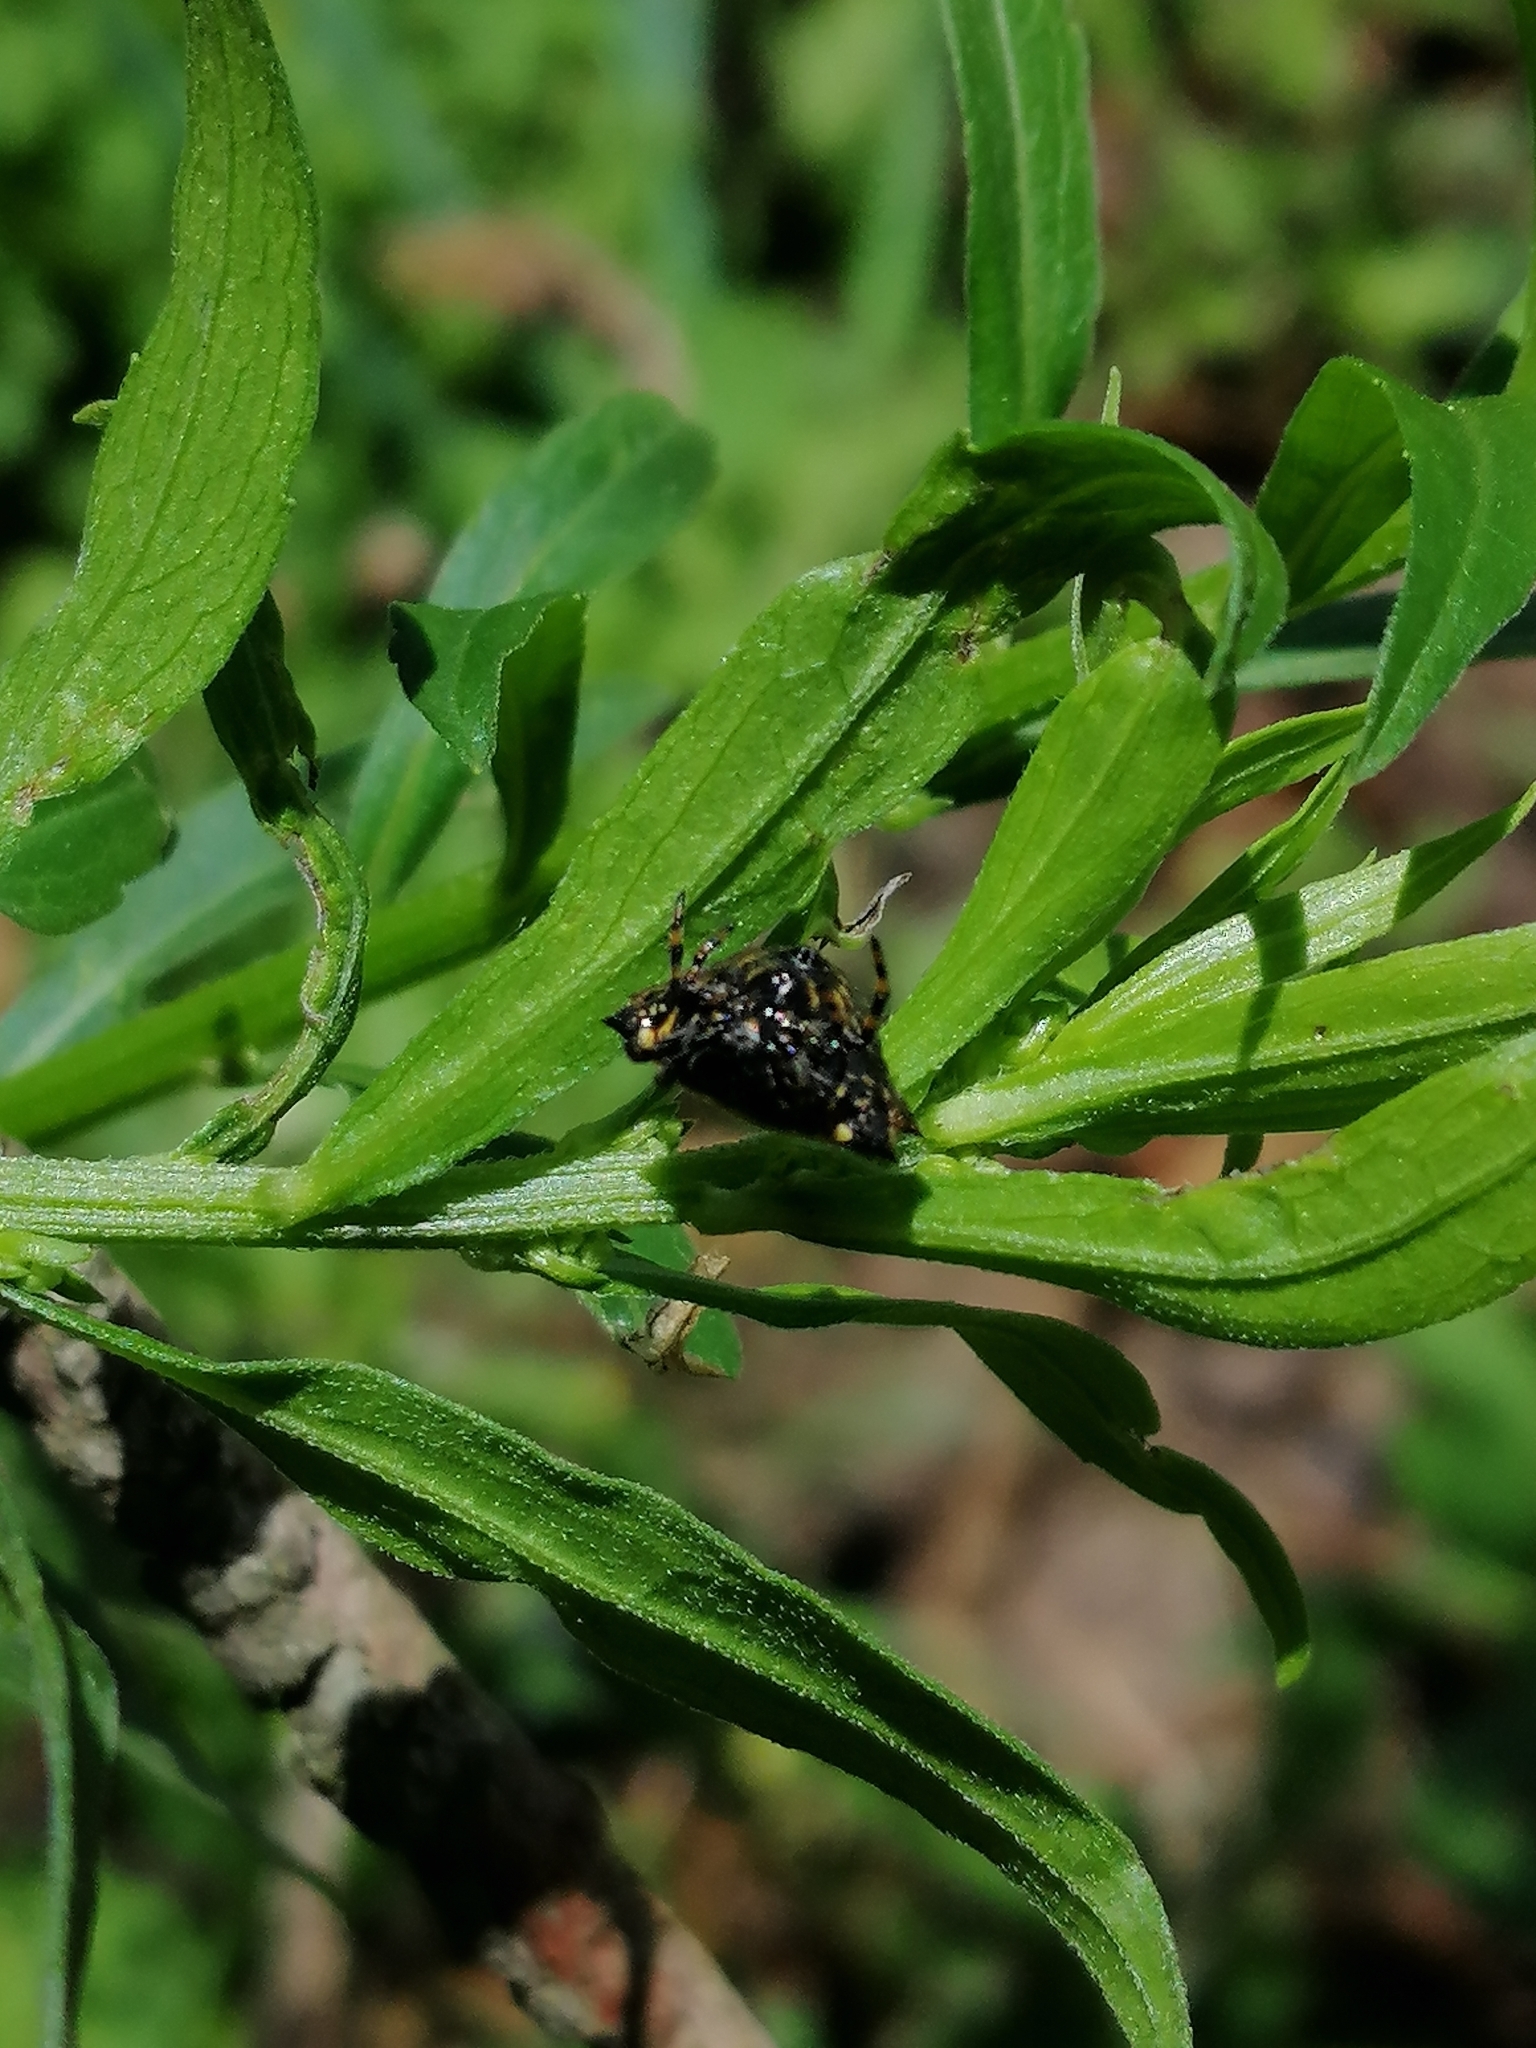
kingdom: Animalia
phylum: Arthropoda
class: Arachnida
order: Araneae
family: Araneidae
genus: Gasteracantha
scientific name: Gasteracantha cancriformis
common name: Orb weavers
